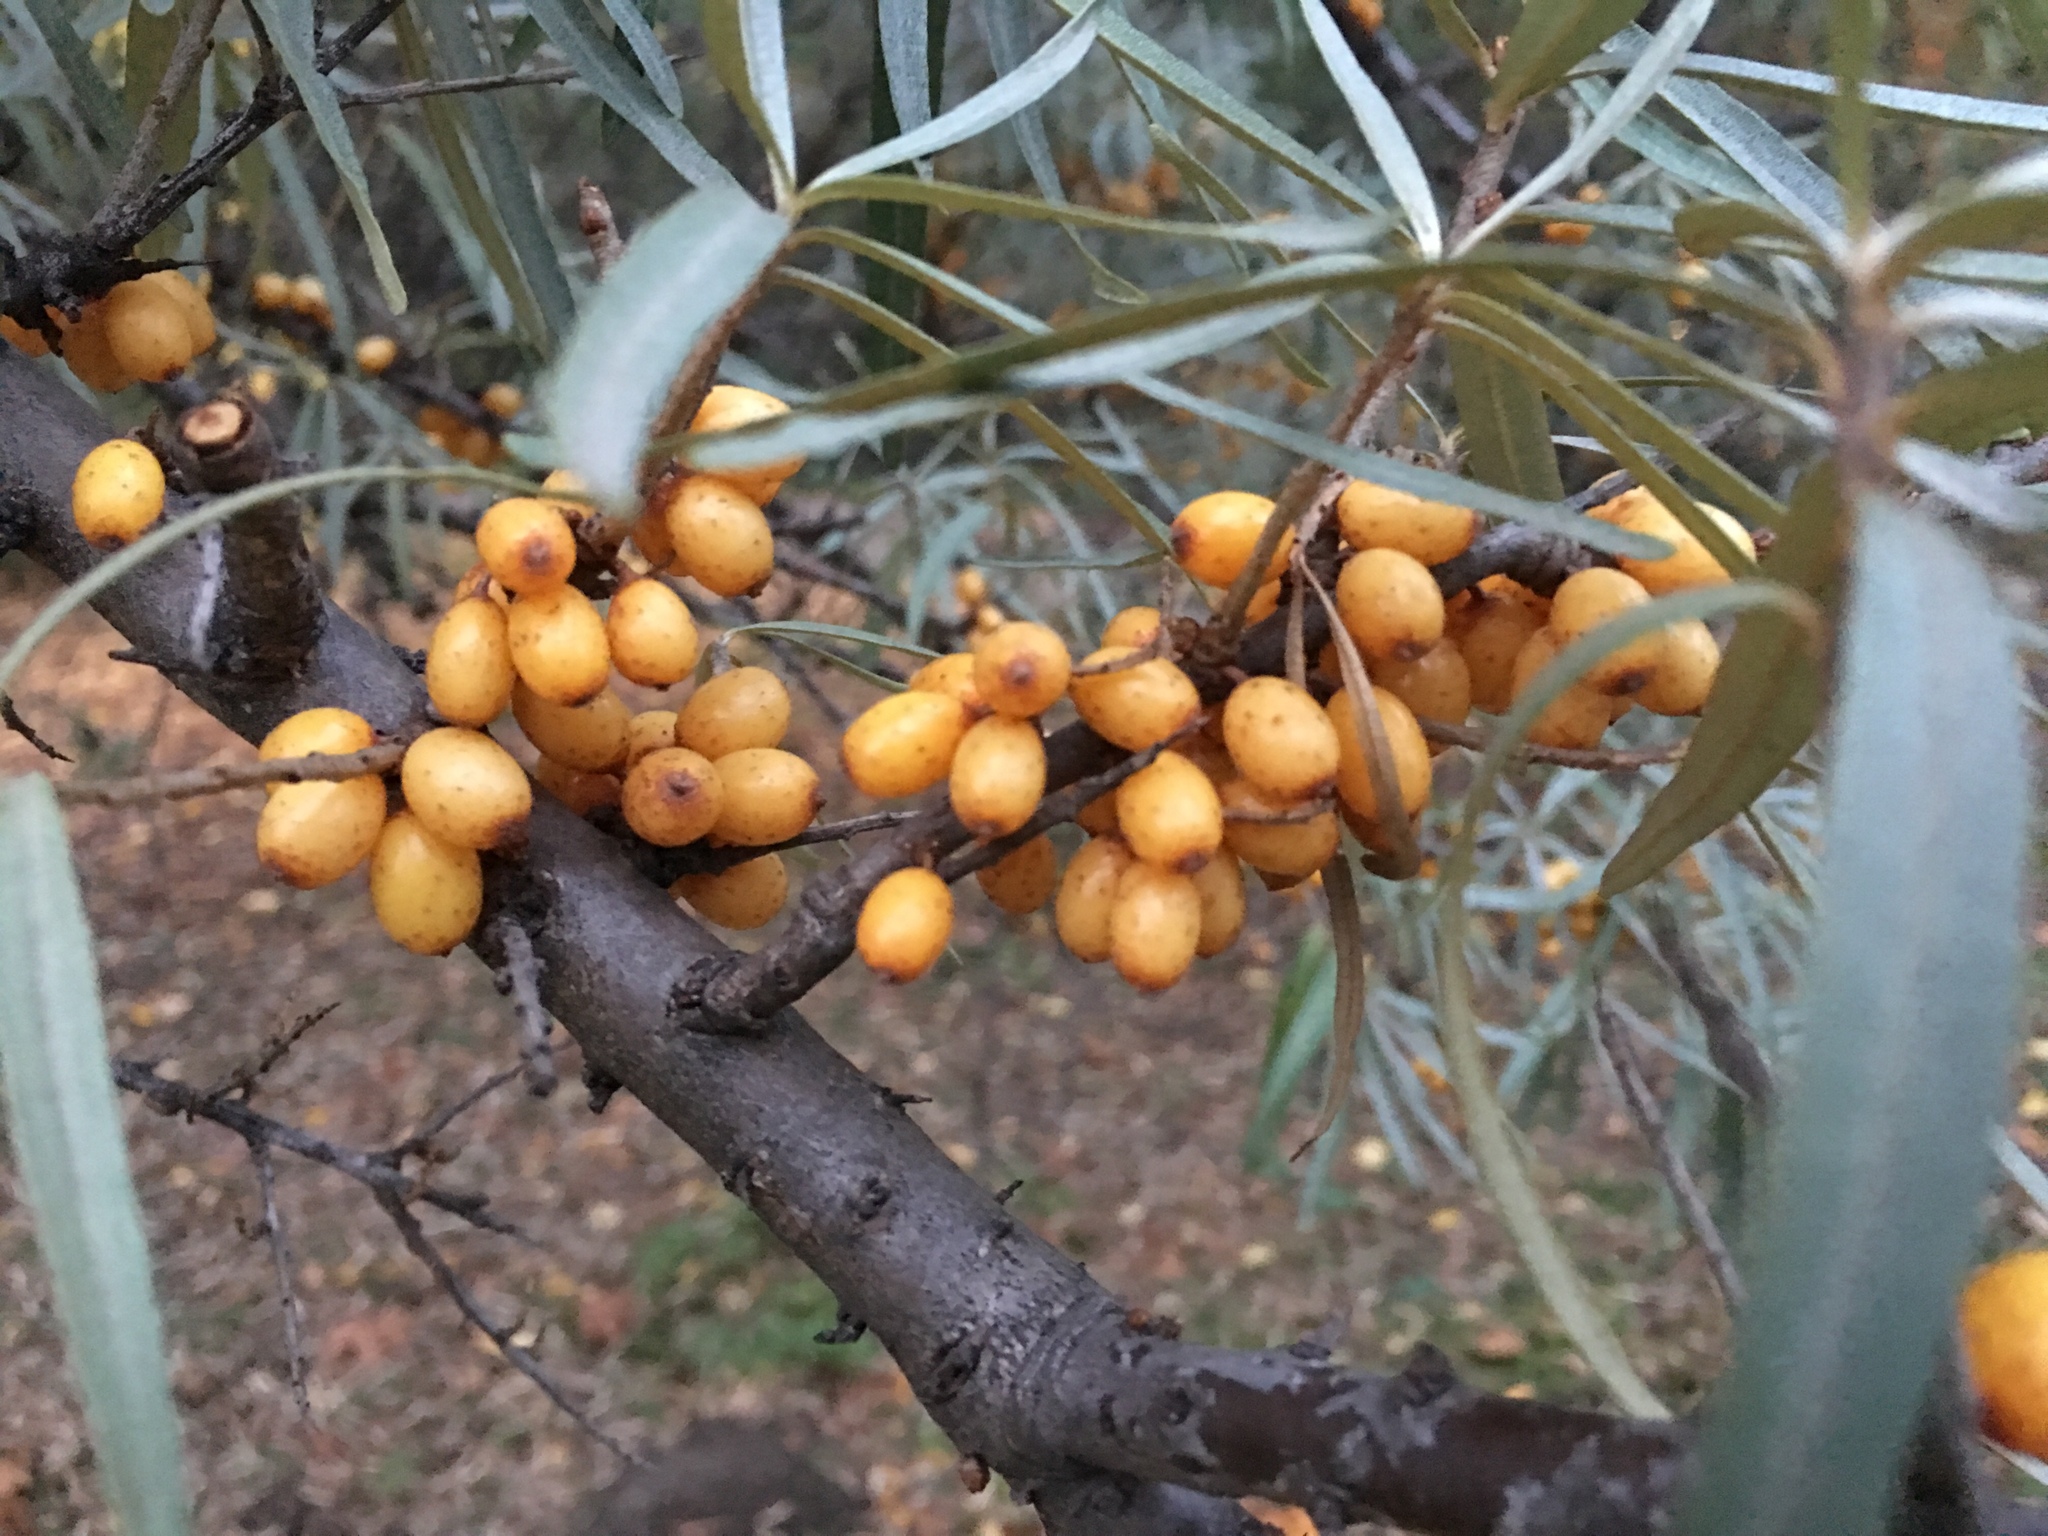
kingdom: Plantae
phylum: Tracheophyta
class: Magnoliopsida
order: Rosales
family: Elaeagnaceae
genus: Hippophae
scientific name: Hippophae rhamnoides
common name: Sea-buckthorn
